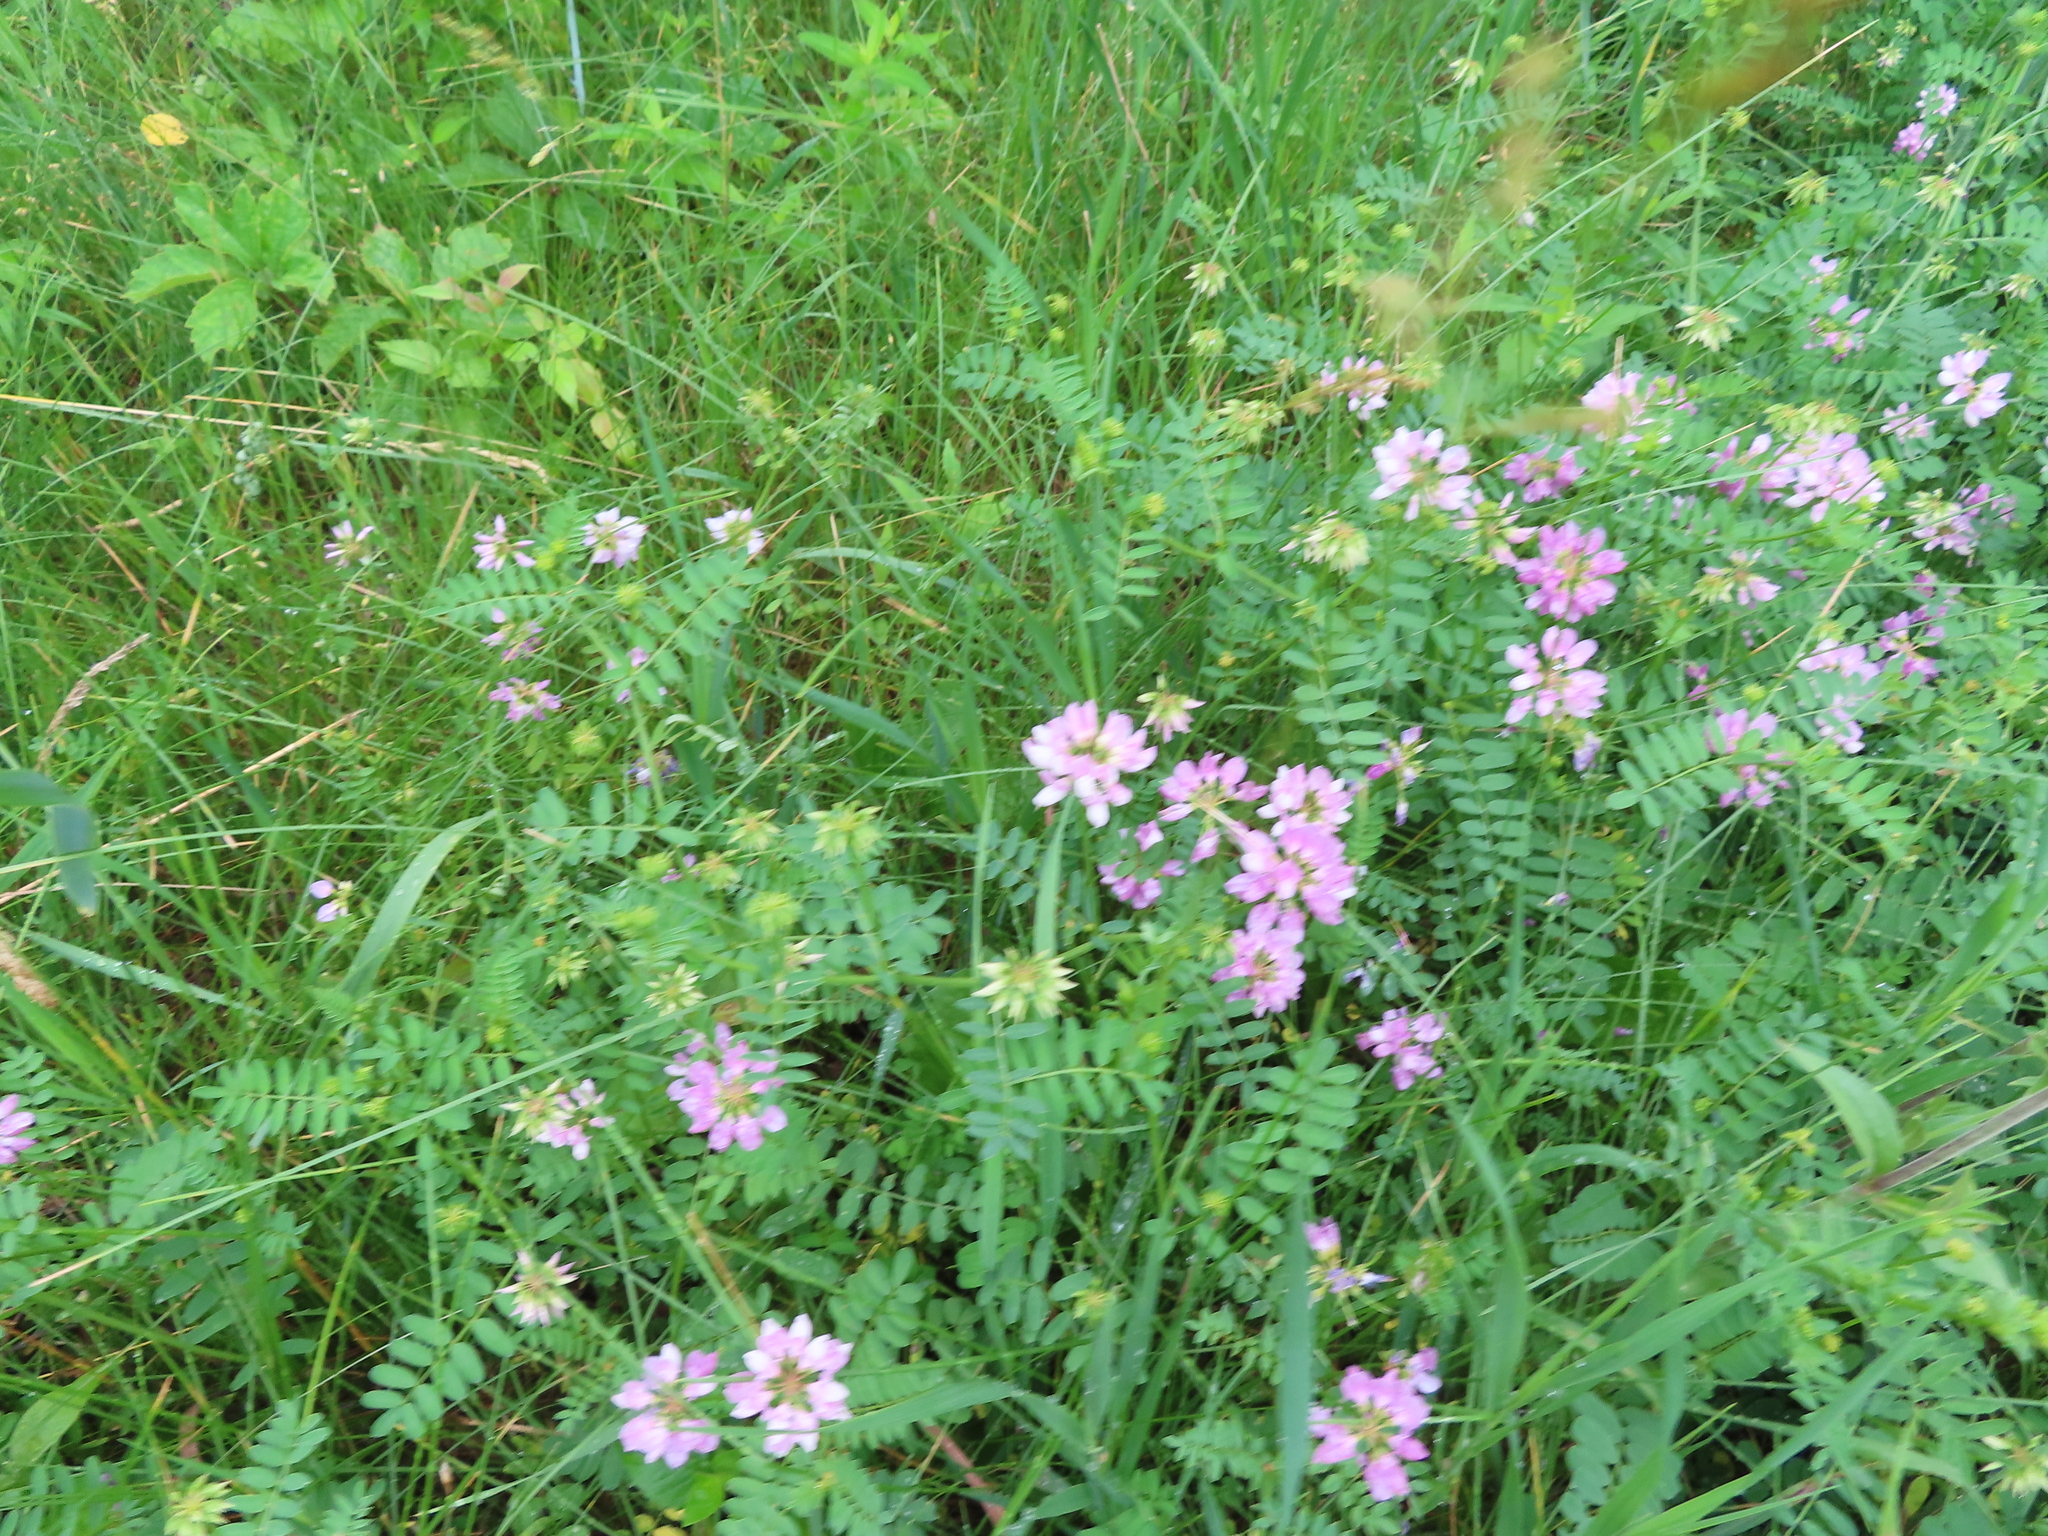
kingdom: Plantae
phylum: Tracheophyta
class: Magnoliopsida
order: Fabales
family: Fabaceae
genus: Coronilla
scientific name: Coronilla varia
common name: Crownvetch
